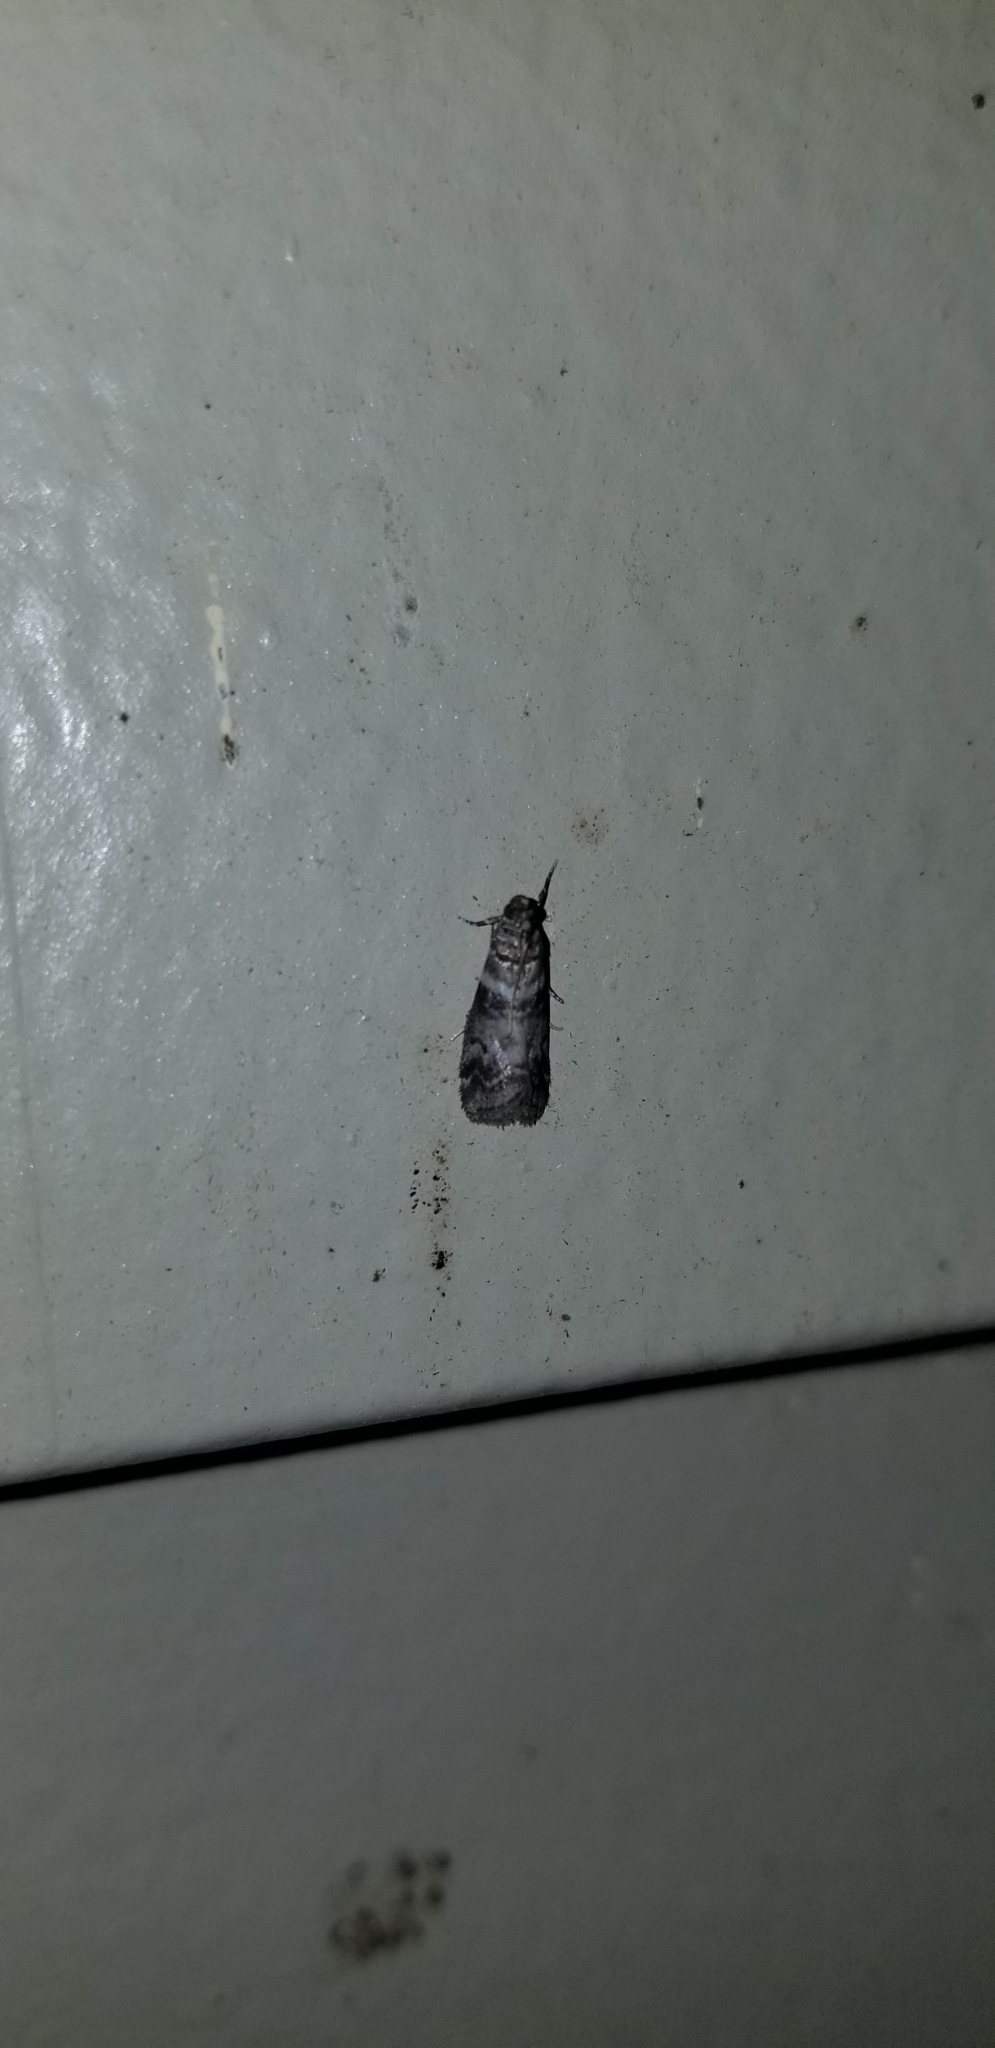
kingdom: Animalia
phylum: Arthropoda
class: Insecta
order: Lepidoptera
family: Pyralidae
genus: Sciota
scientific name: Sciota uvinella
